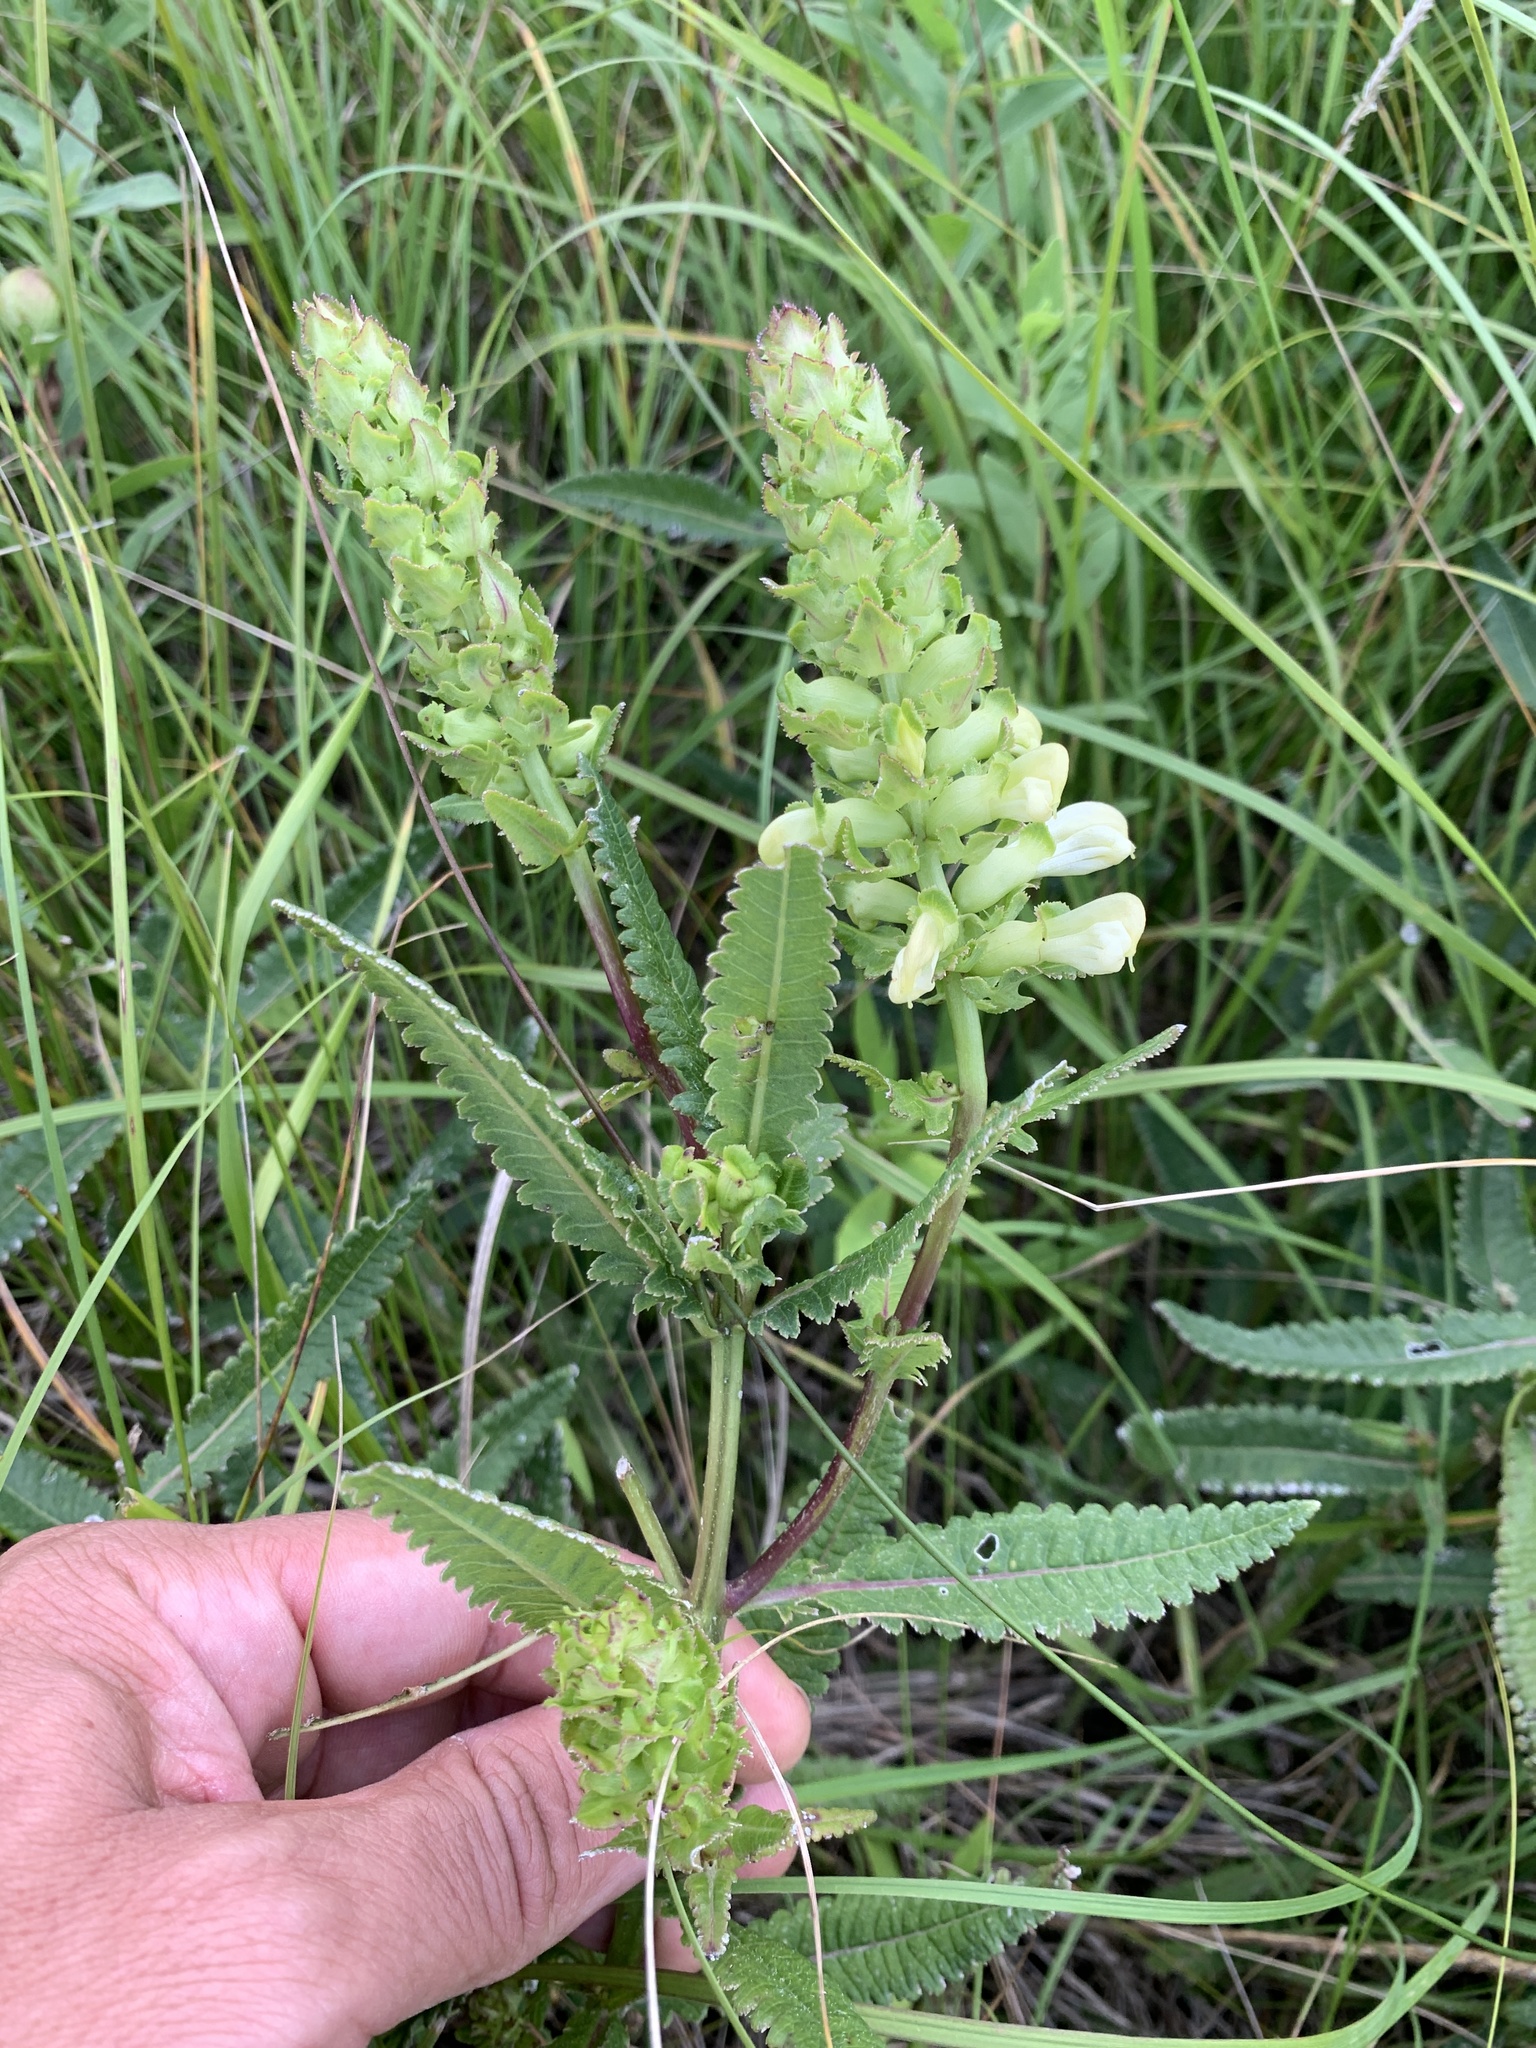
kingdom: Plantae
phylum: Tracheophyta
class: Magnoliopsida
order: Lamiales
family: Orobanchaceae
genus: Pedicularis
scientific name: Pedicularis lanceolata
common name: Swamp lousewort
